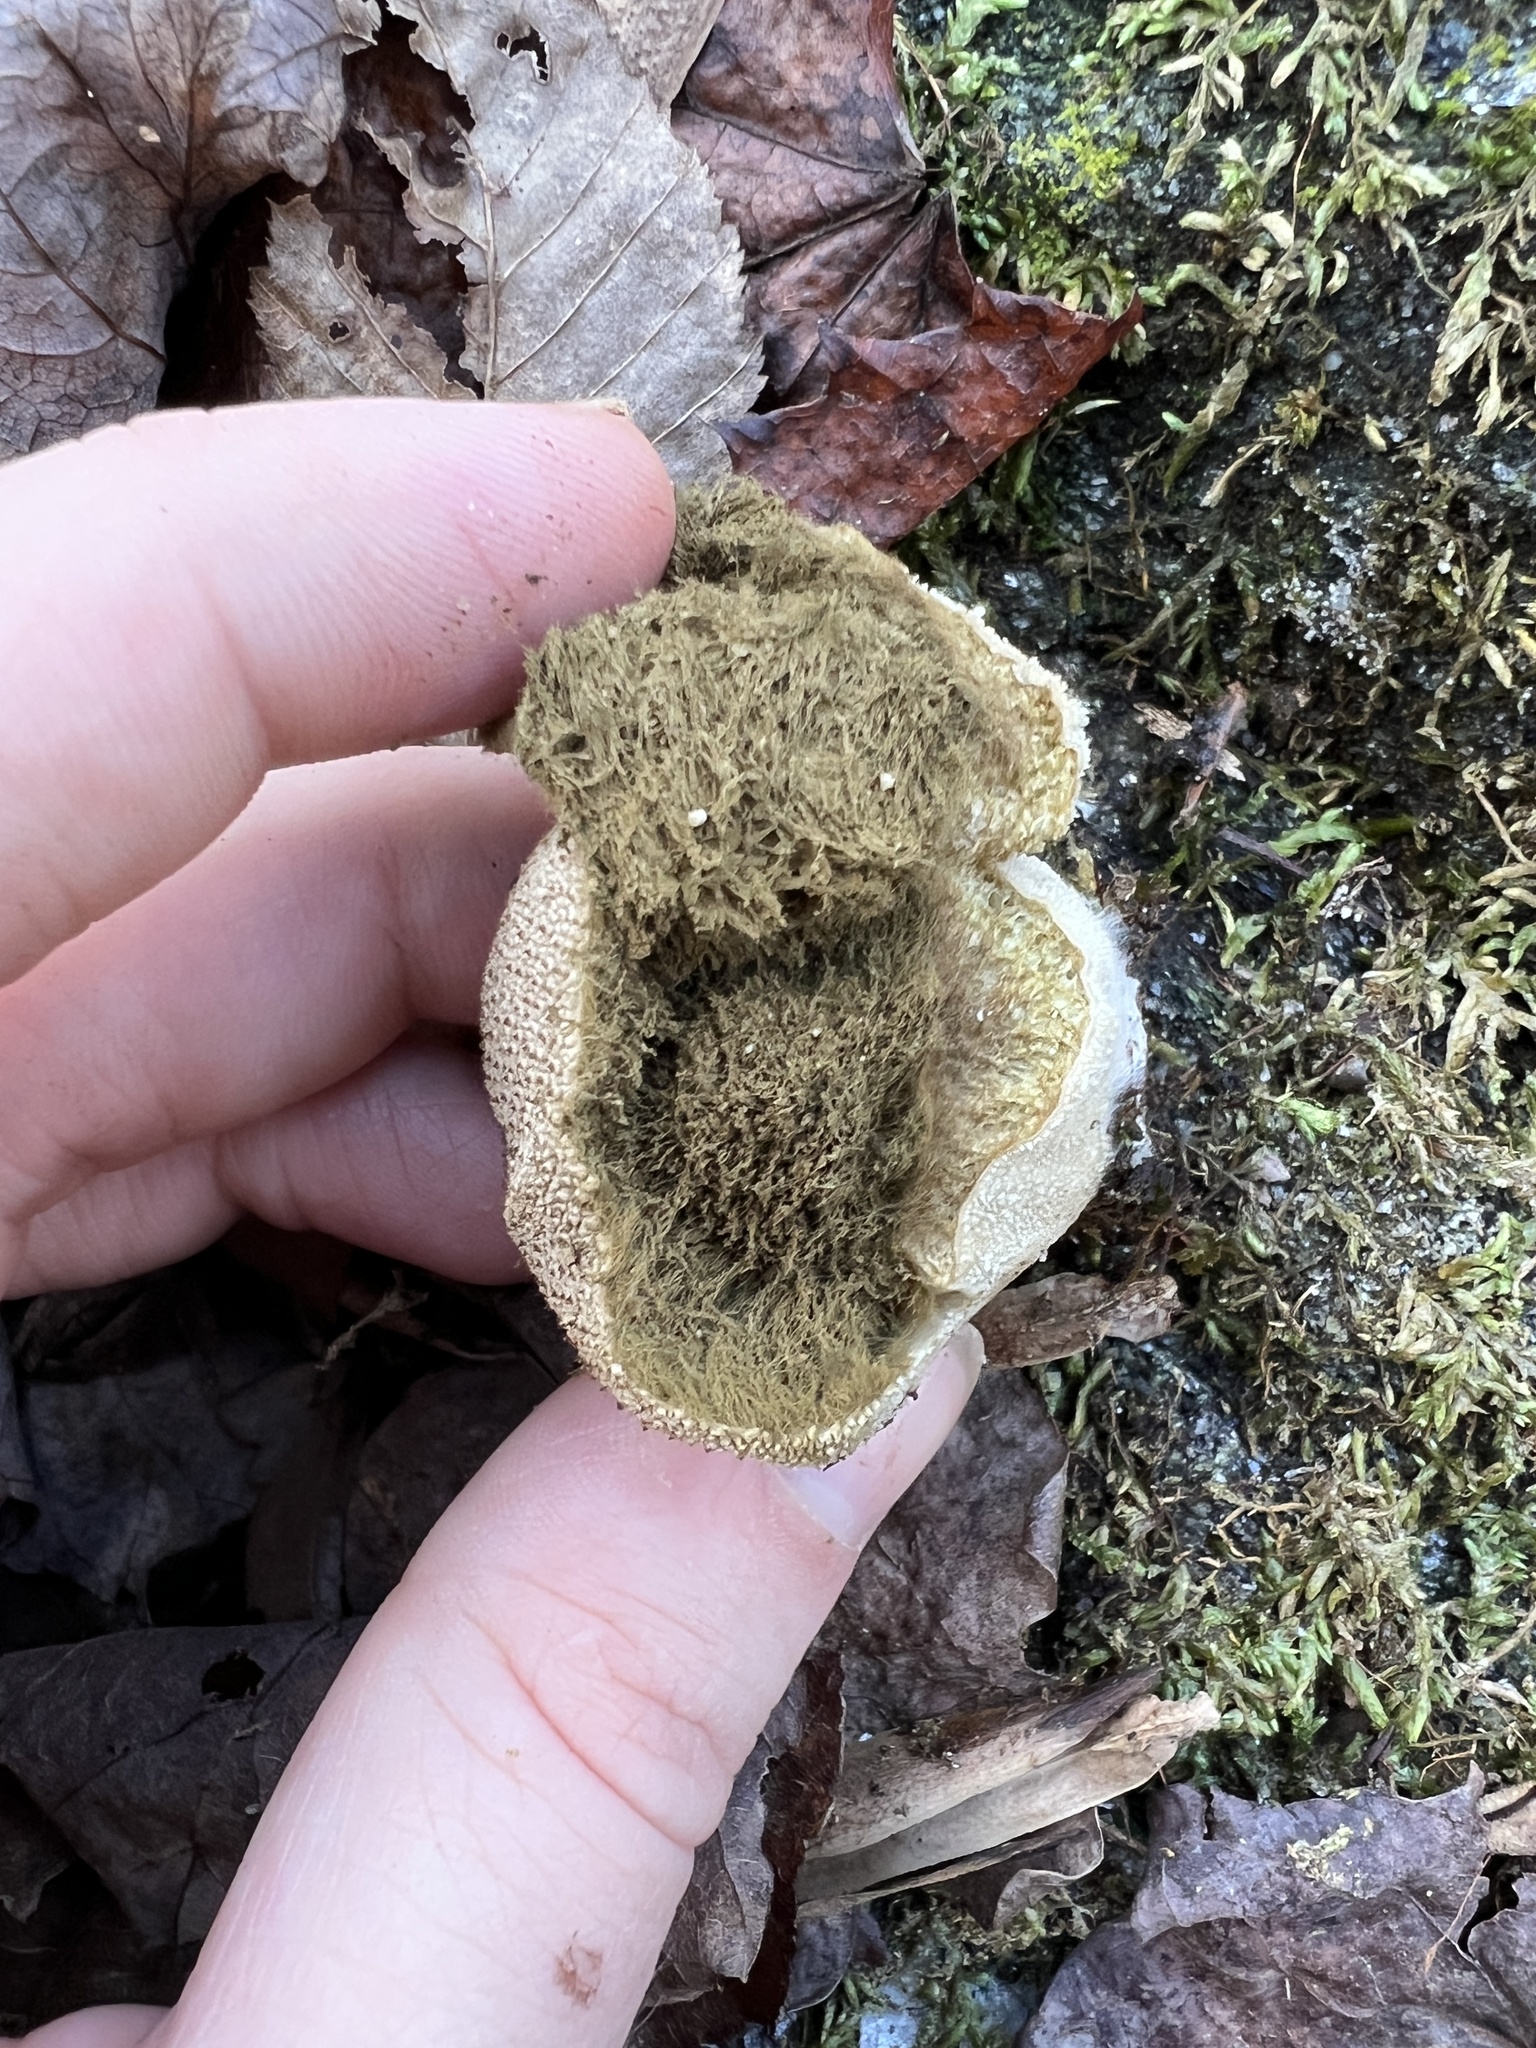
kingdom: Fungi
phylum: Basidiomycota
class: Agaricomycetes
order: Agaricales
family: Lycoperdaceae
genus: Lycoperdon
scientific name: Lycoperdon perlatum
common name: Common puffball
